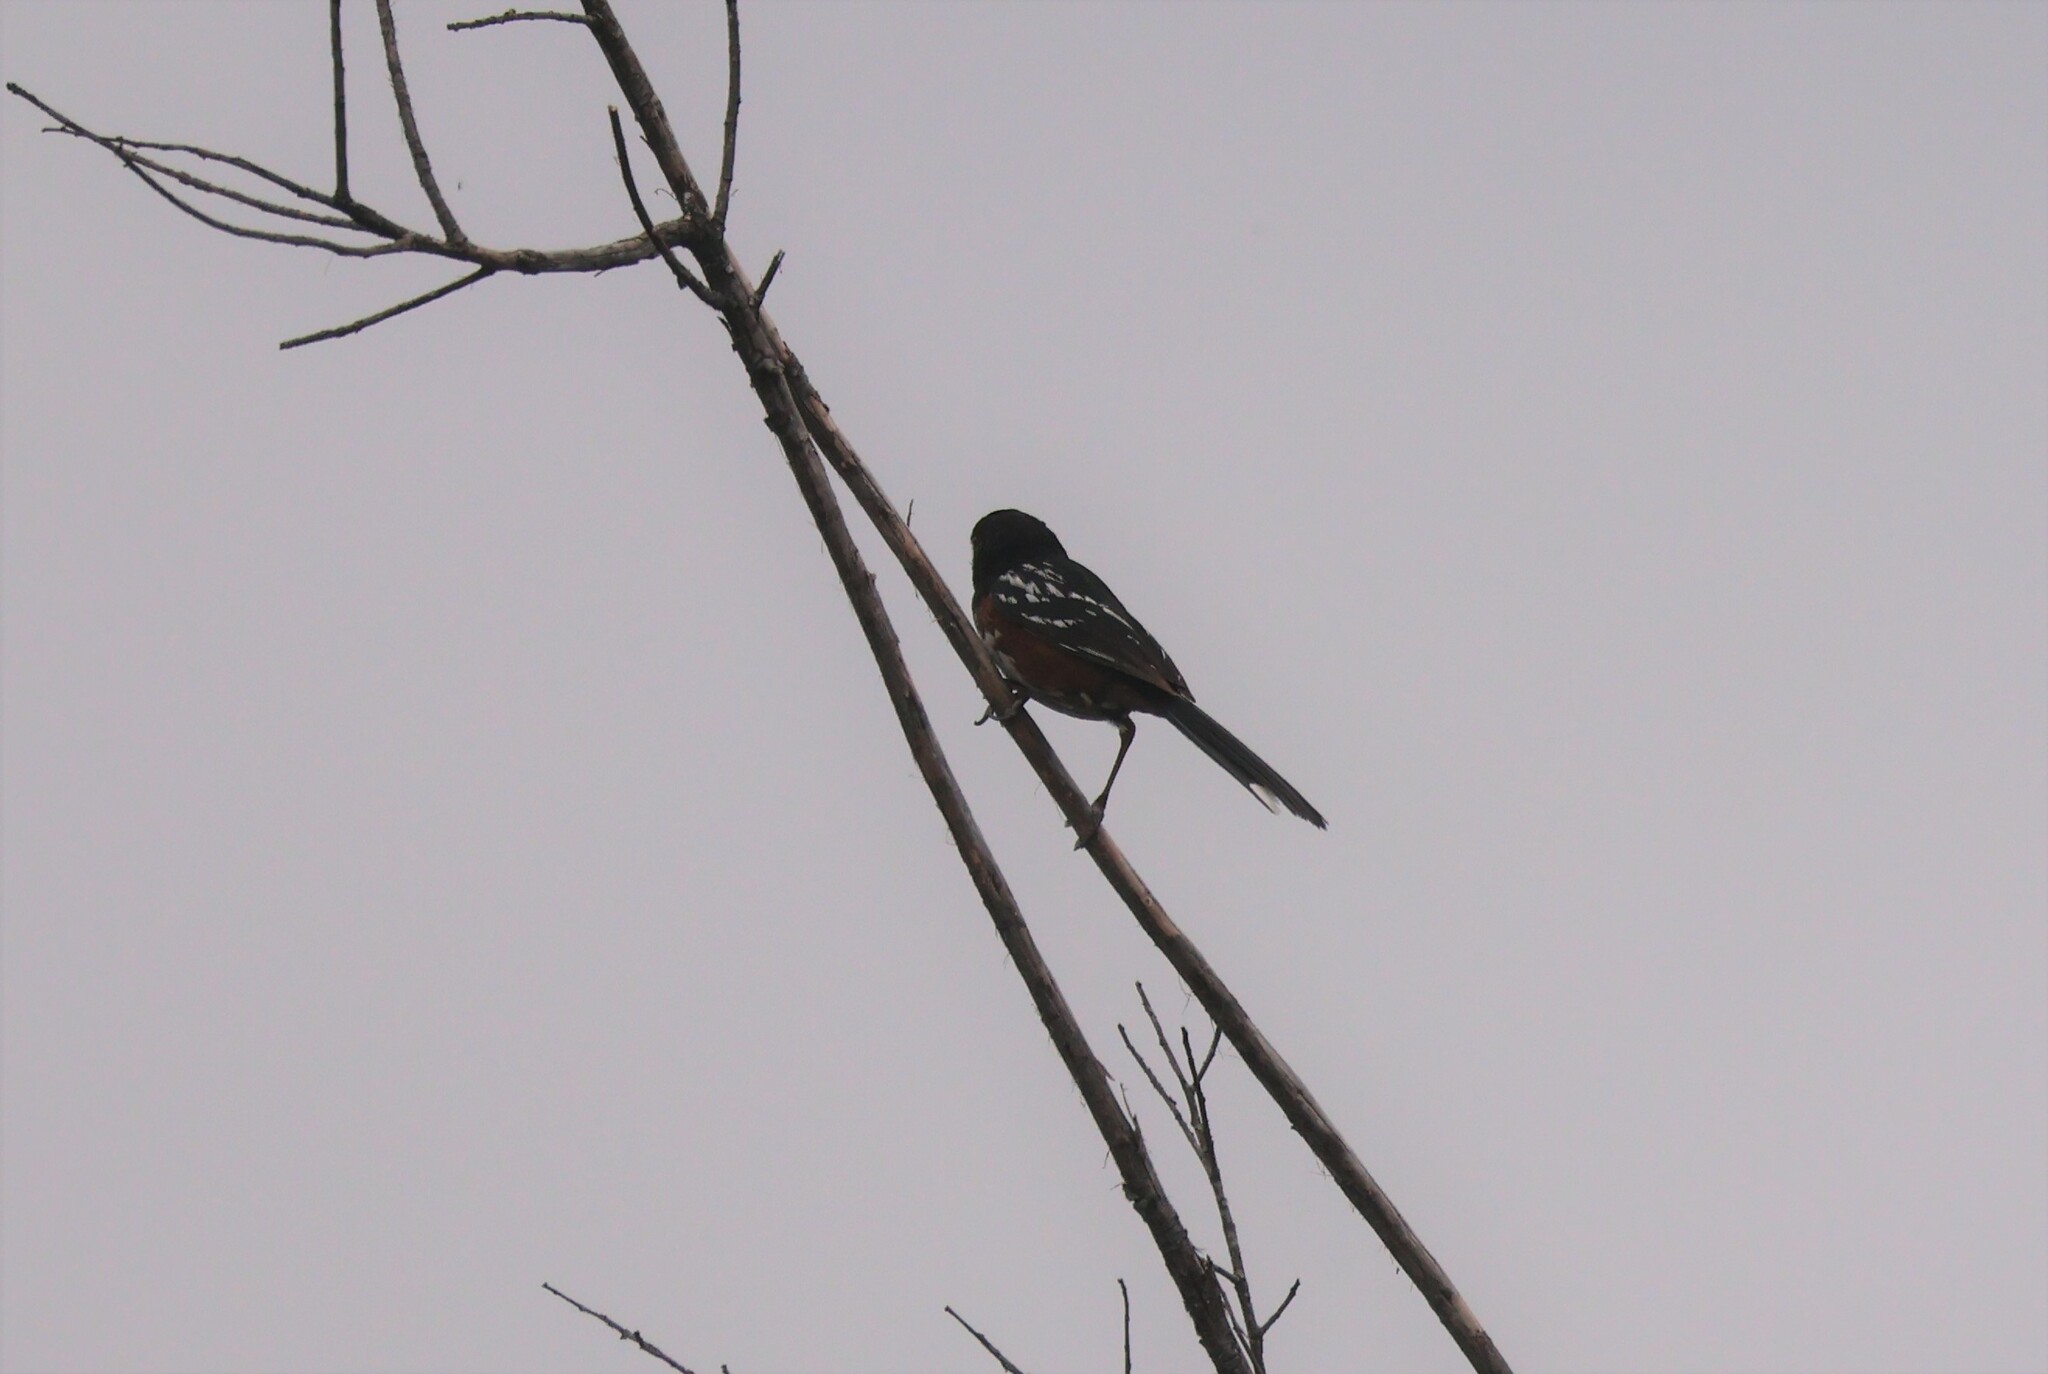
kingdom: Animalia
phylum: Chordata
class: Aves
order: Passeriformes
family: Passerellidae
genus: Pipilo
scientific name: Pipilo maculatus
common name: Spotted towhee
